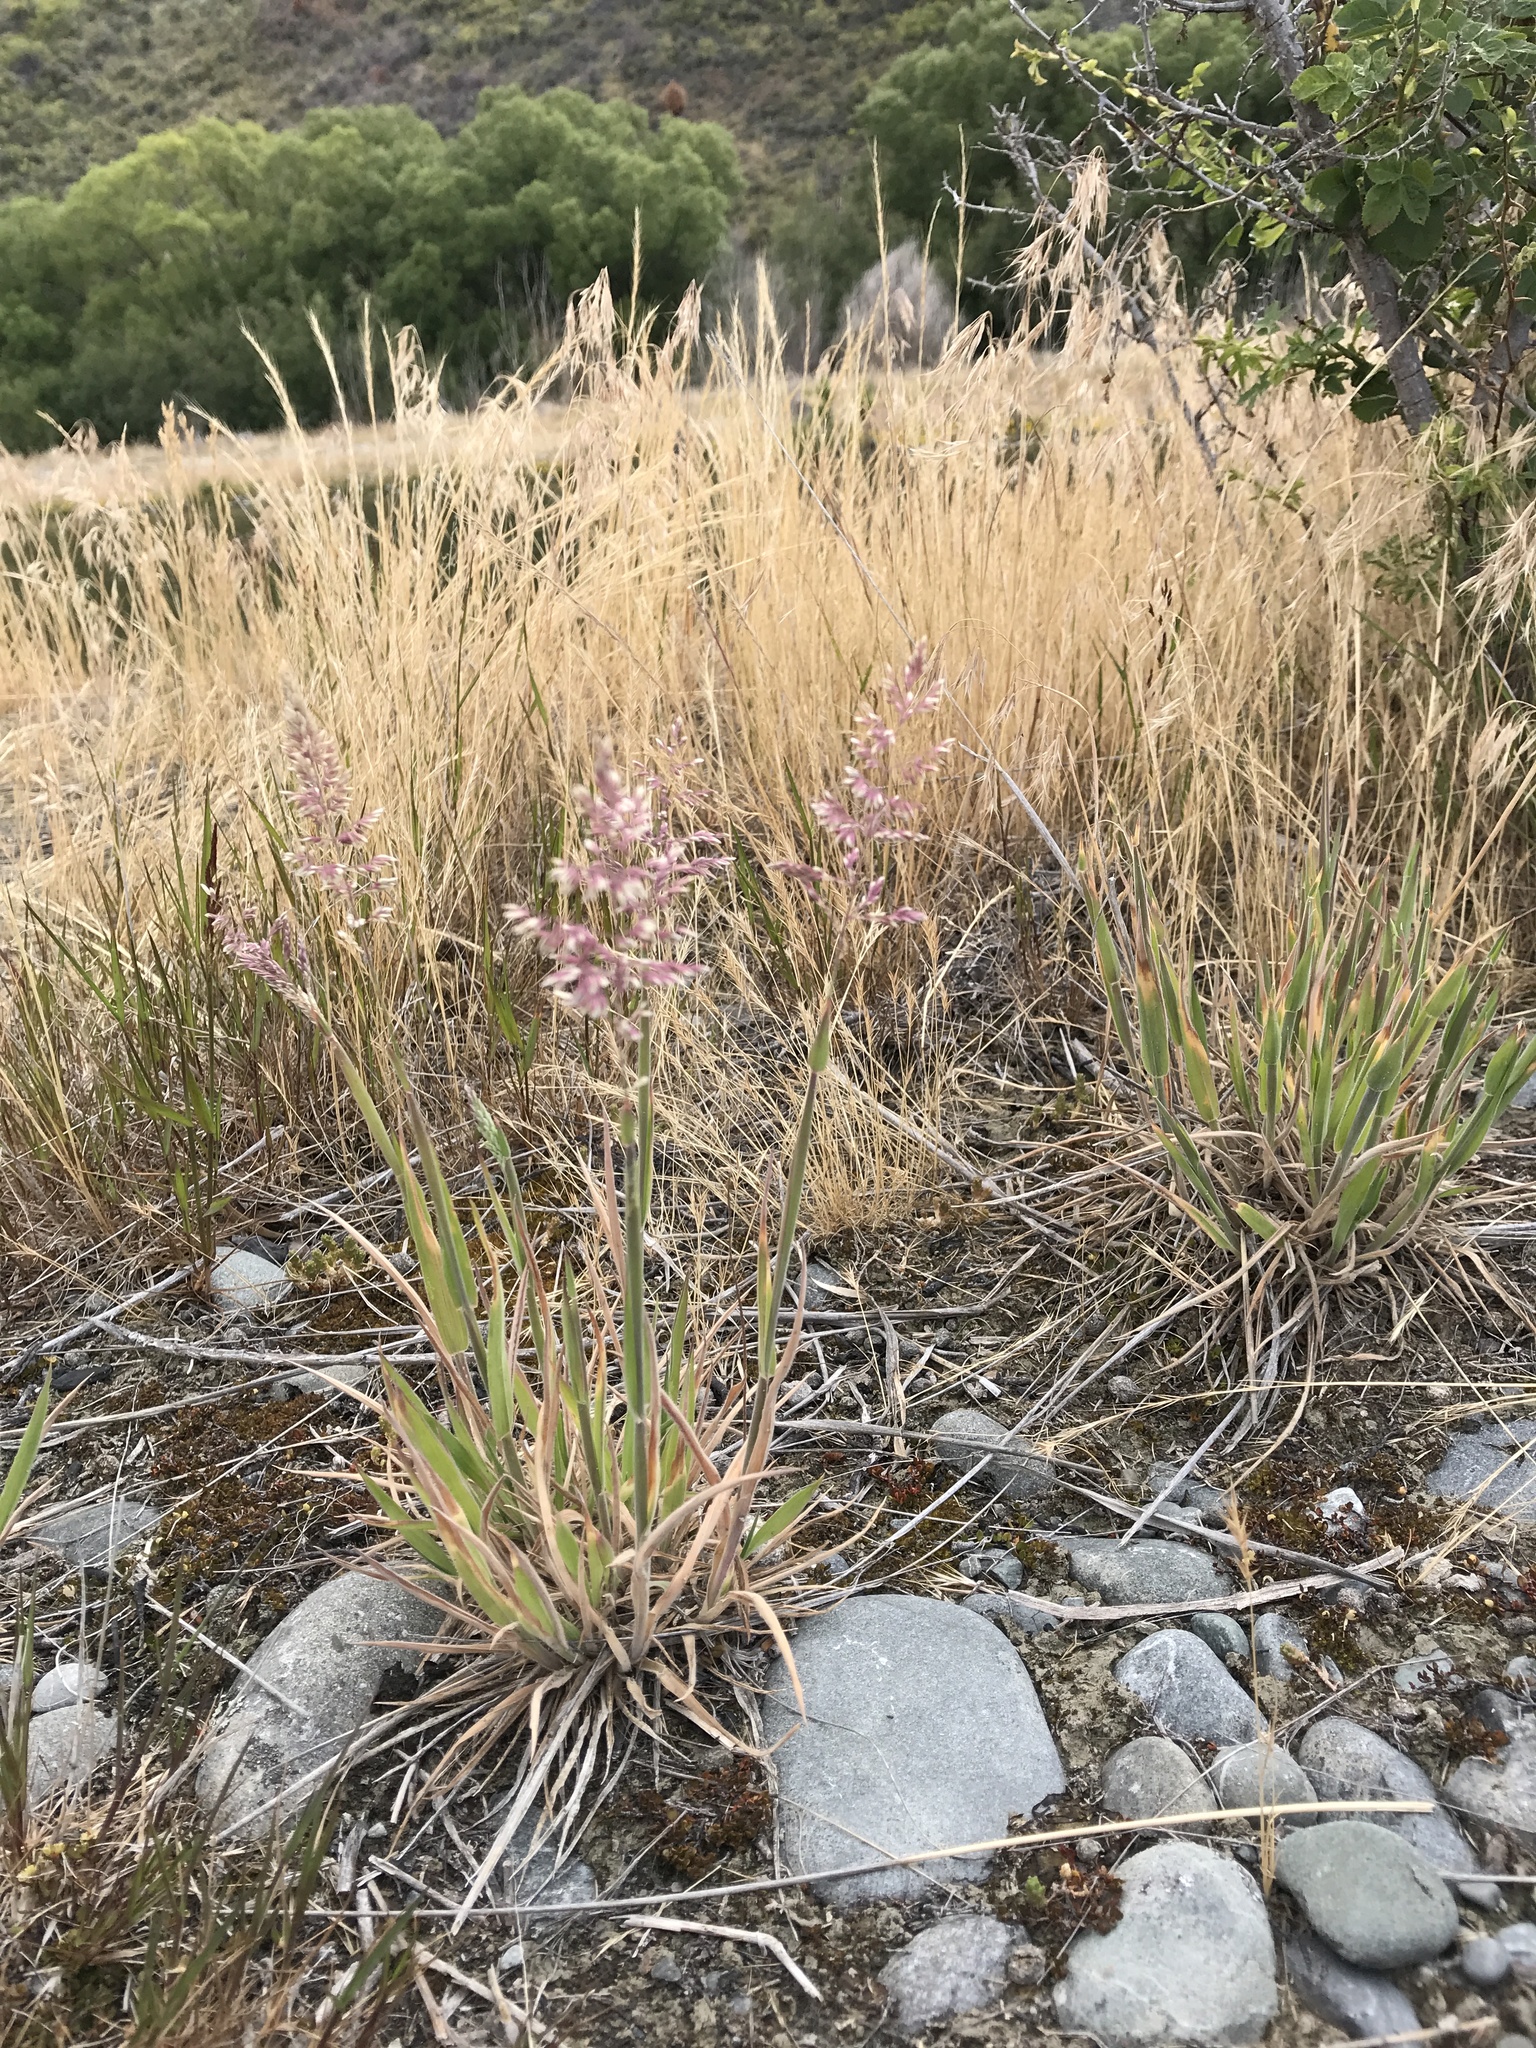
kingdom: Plantae
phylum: Tracheophyta
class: Liliopsida
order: Poales
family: Poaceae
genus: Holcus
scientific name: Holcus lanatus
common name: Yorkshire-fog
